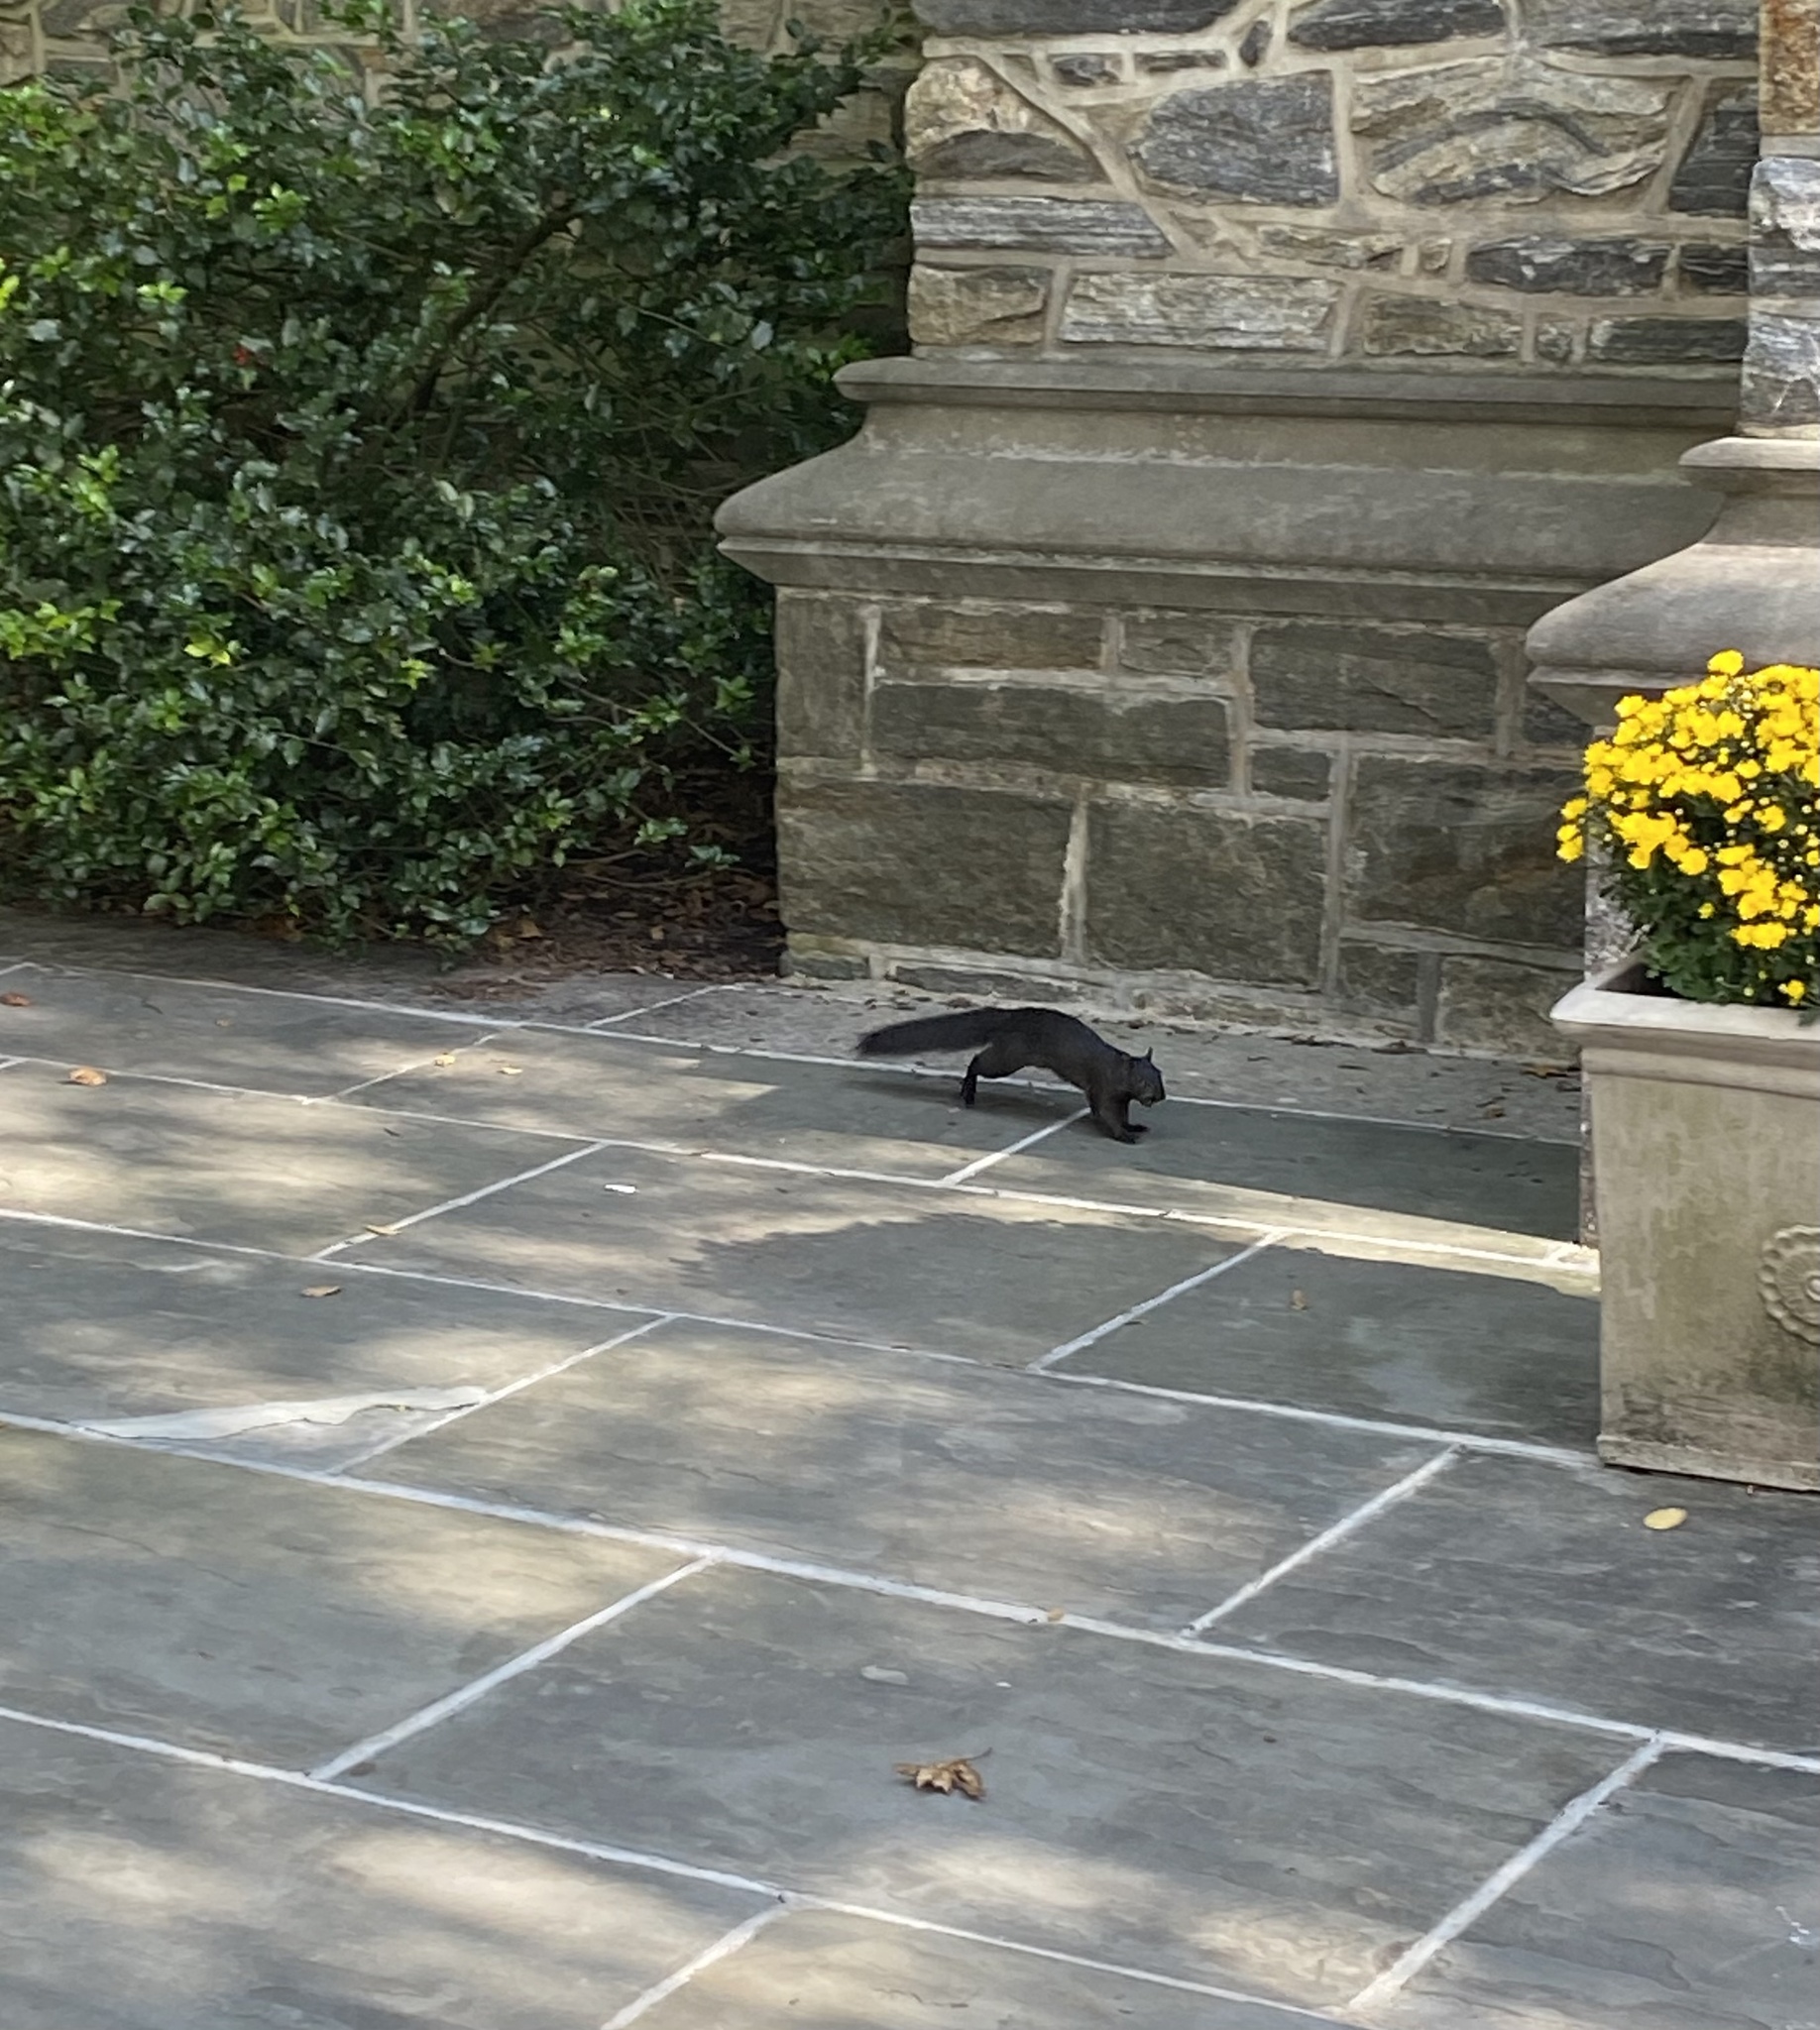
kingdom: Animalia
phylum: Chordata
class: Mammalia
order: Rodentia
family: Sciuridae
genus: Sciurus
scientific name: Sciurus carolinensis
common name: Eastern gray squirrel
